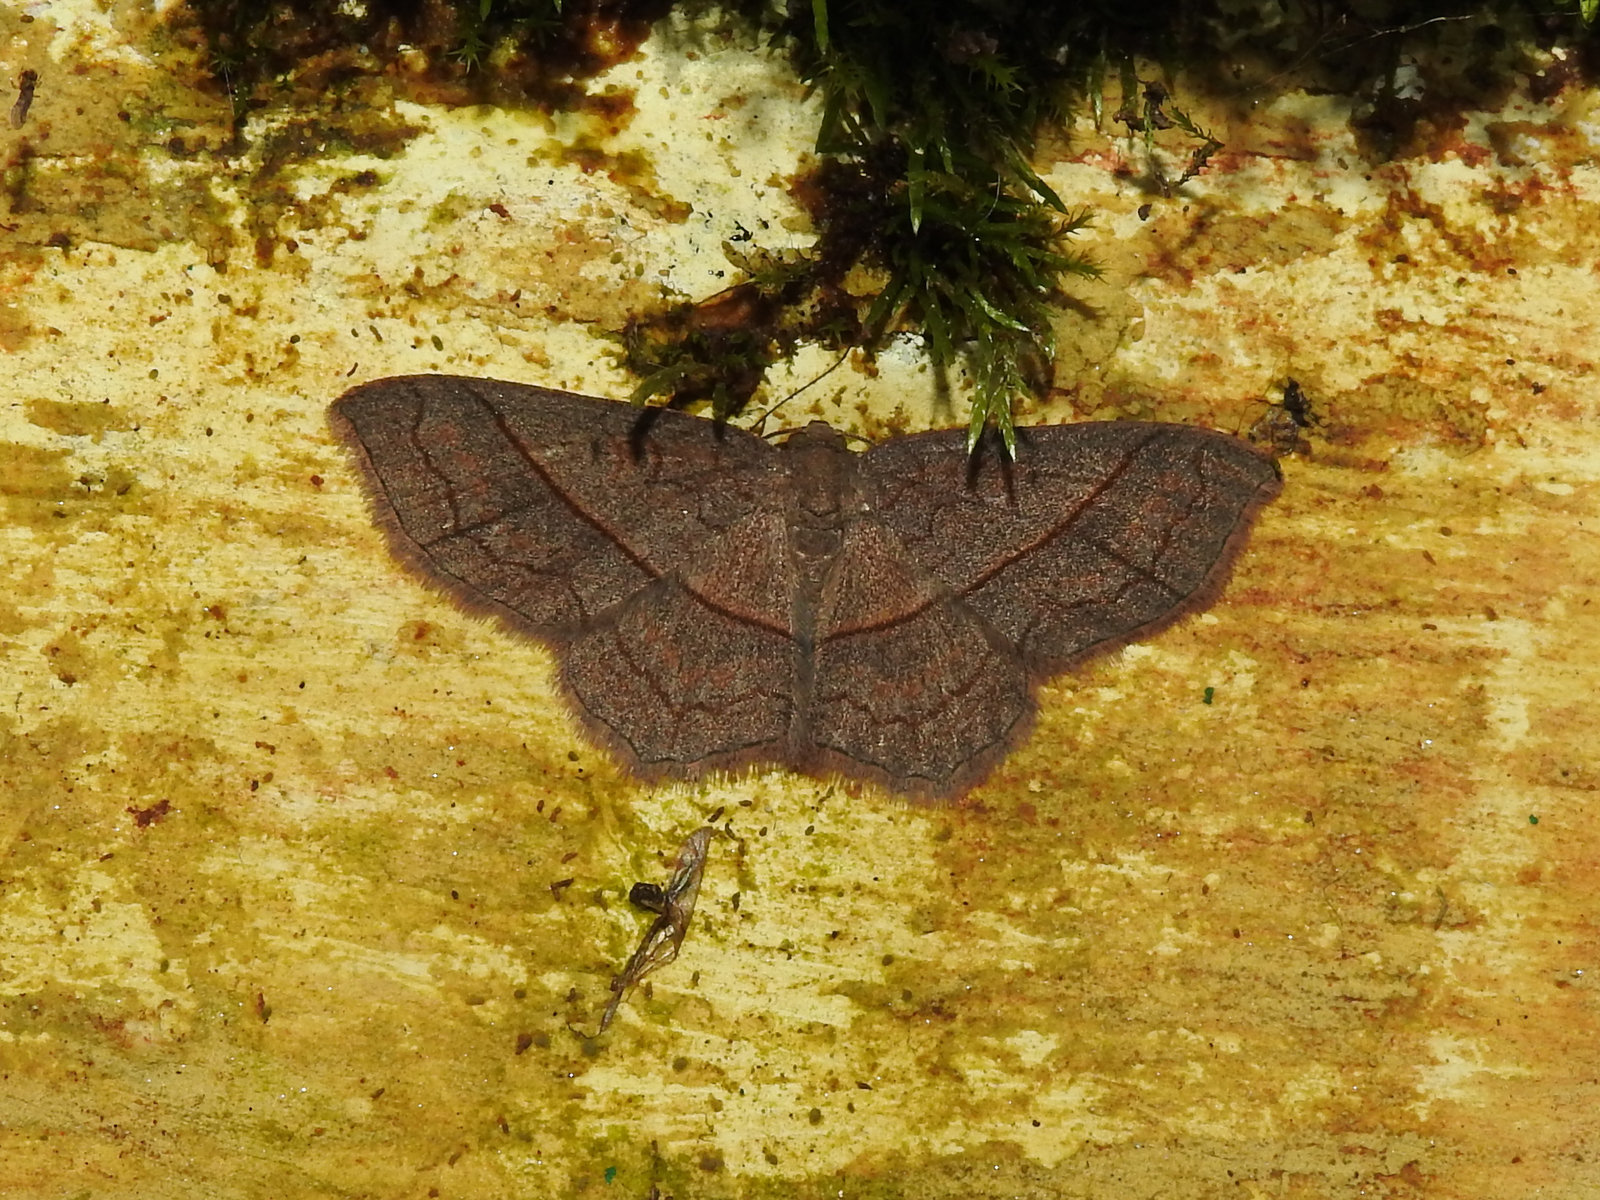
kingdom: Animalia
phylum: Arthropoda
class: Insecta
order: Lepidoptera
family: Geometridae
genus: Hydrelia
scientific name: Hydrelia sericea
